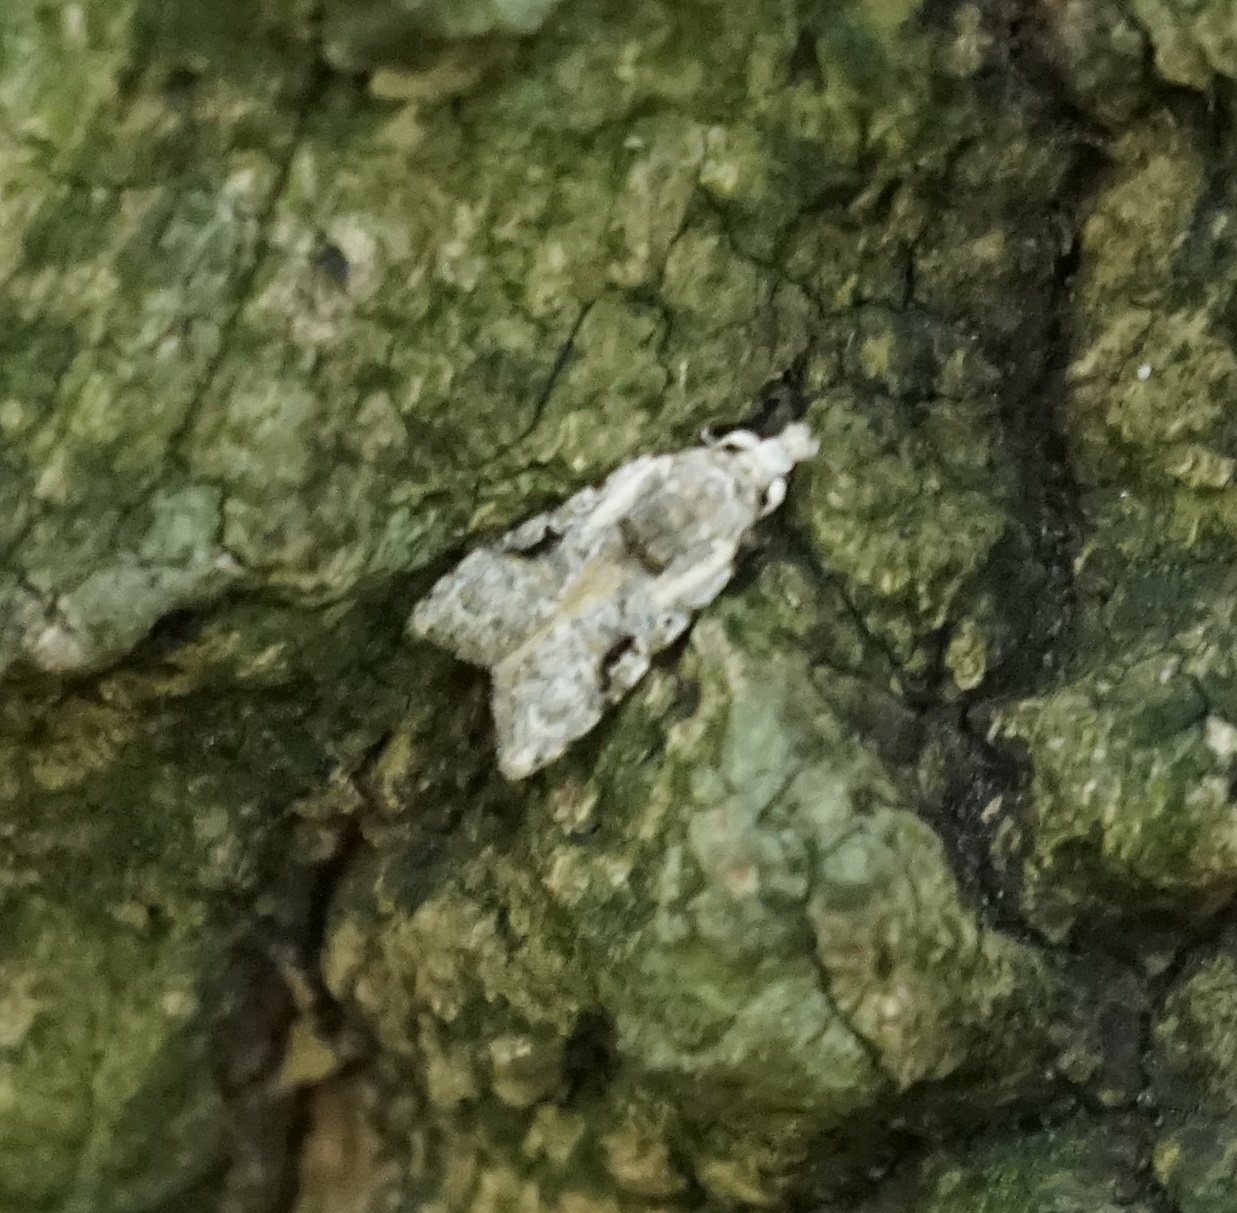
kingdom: Animalia
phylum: Arthropoda
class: Insecta
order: Lepidoptera
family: Carposinidae
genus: Coscinoptycha
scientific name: Coscinoptycha improbana
